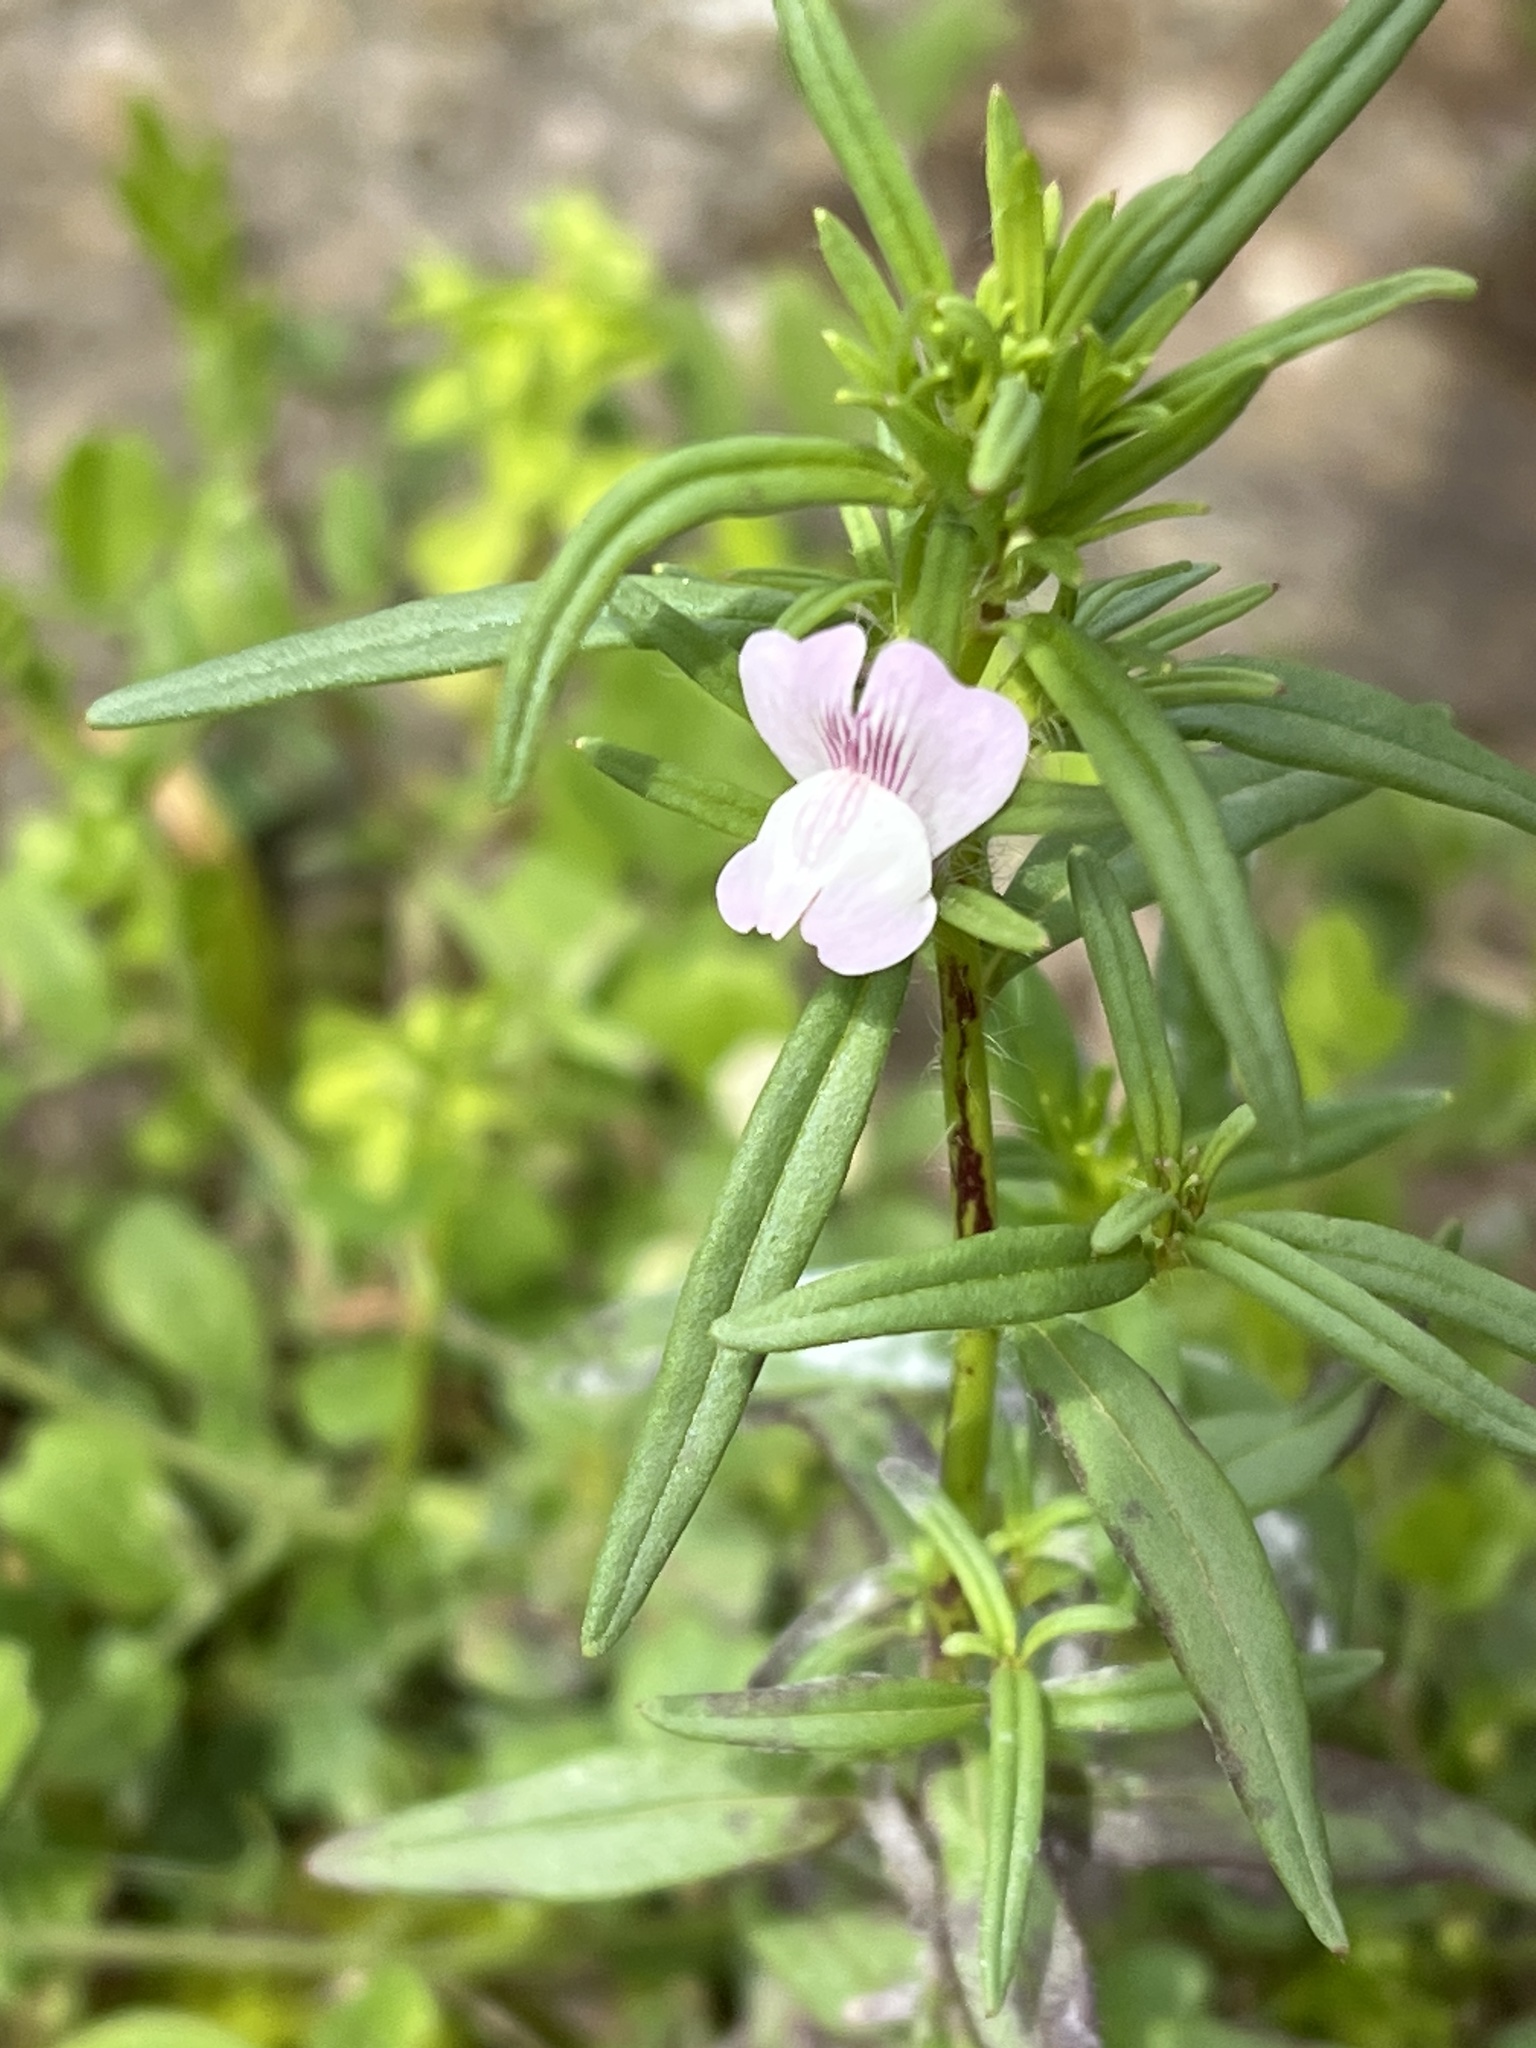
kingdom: Plantae
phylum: Tracheophyta
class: Magnoliopsida
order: Lamiales
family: Plantaginaceae
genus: Misopates
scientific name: Misopates orontium
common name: Weasel's-snout
